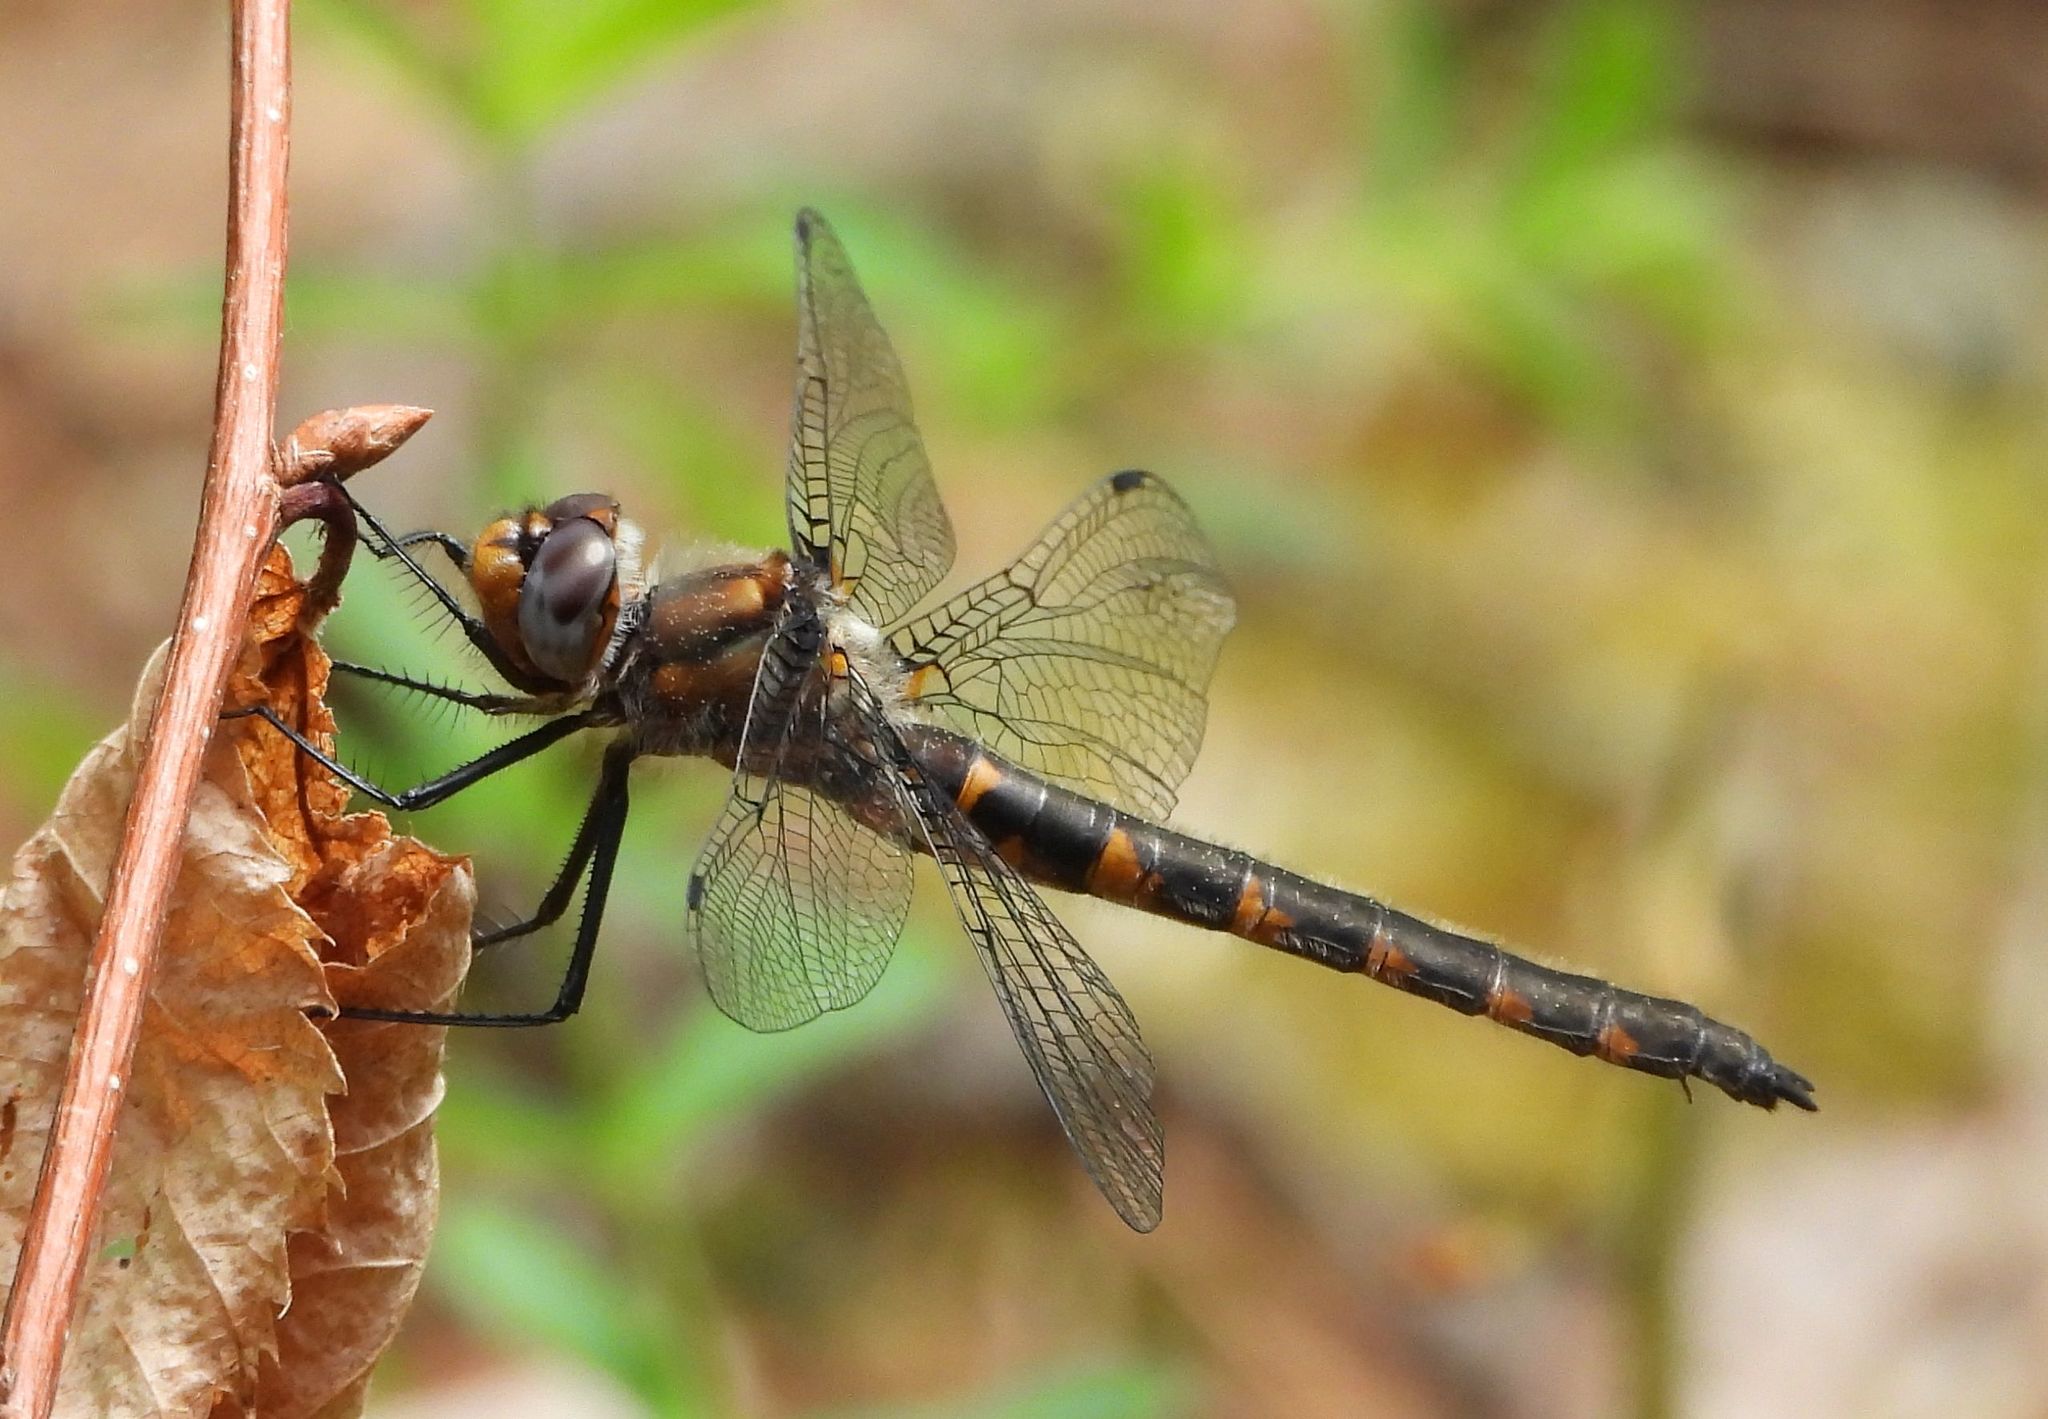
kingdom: Animalia
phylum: Arthropoda
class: Insecta
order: Odonata
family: Corduliidae
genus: Helocordulia
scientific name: Helocordulia uhleri
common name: Uhler's sundragon
